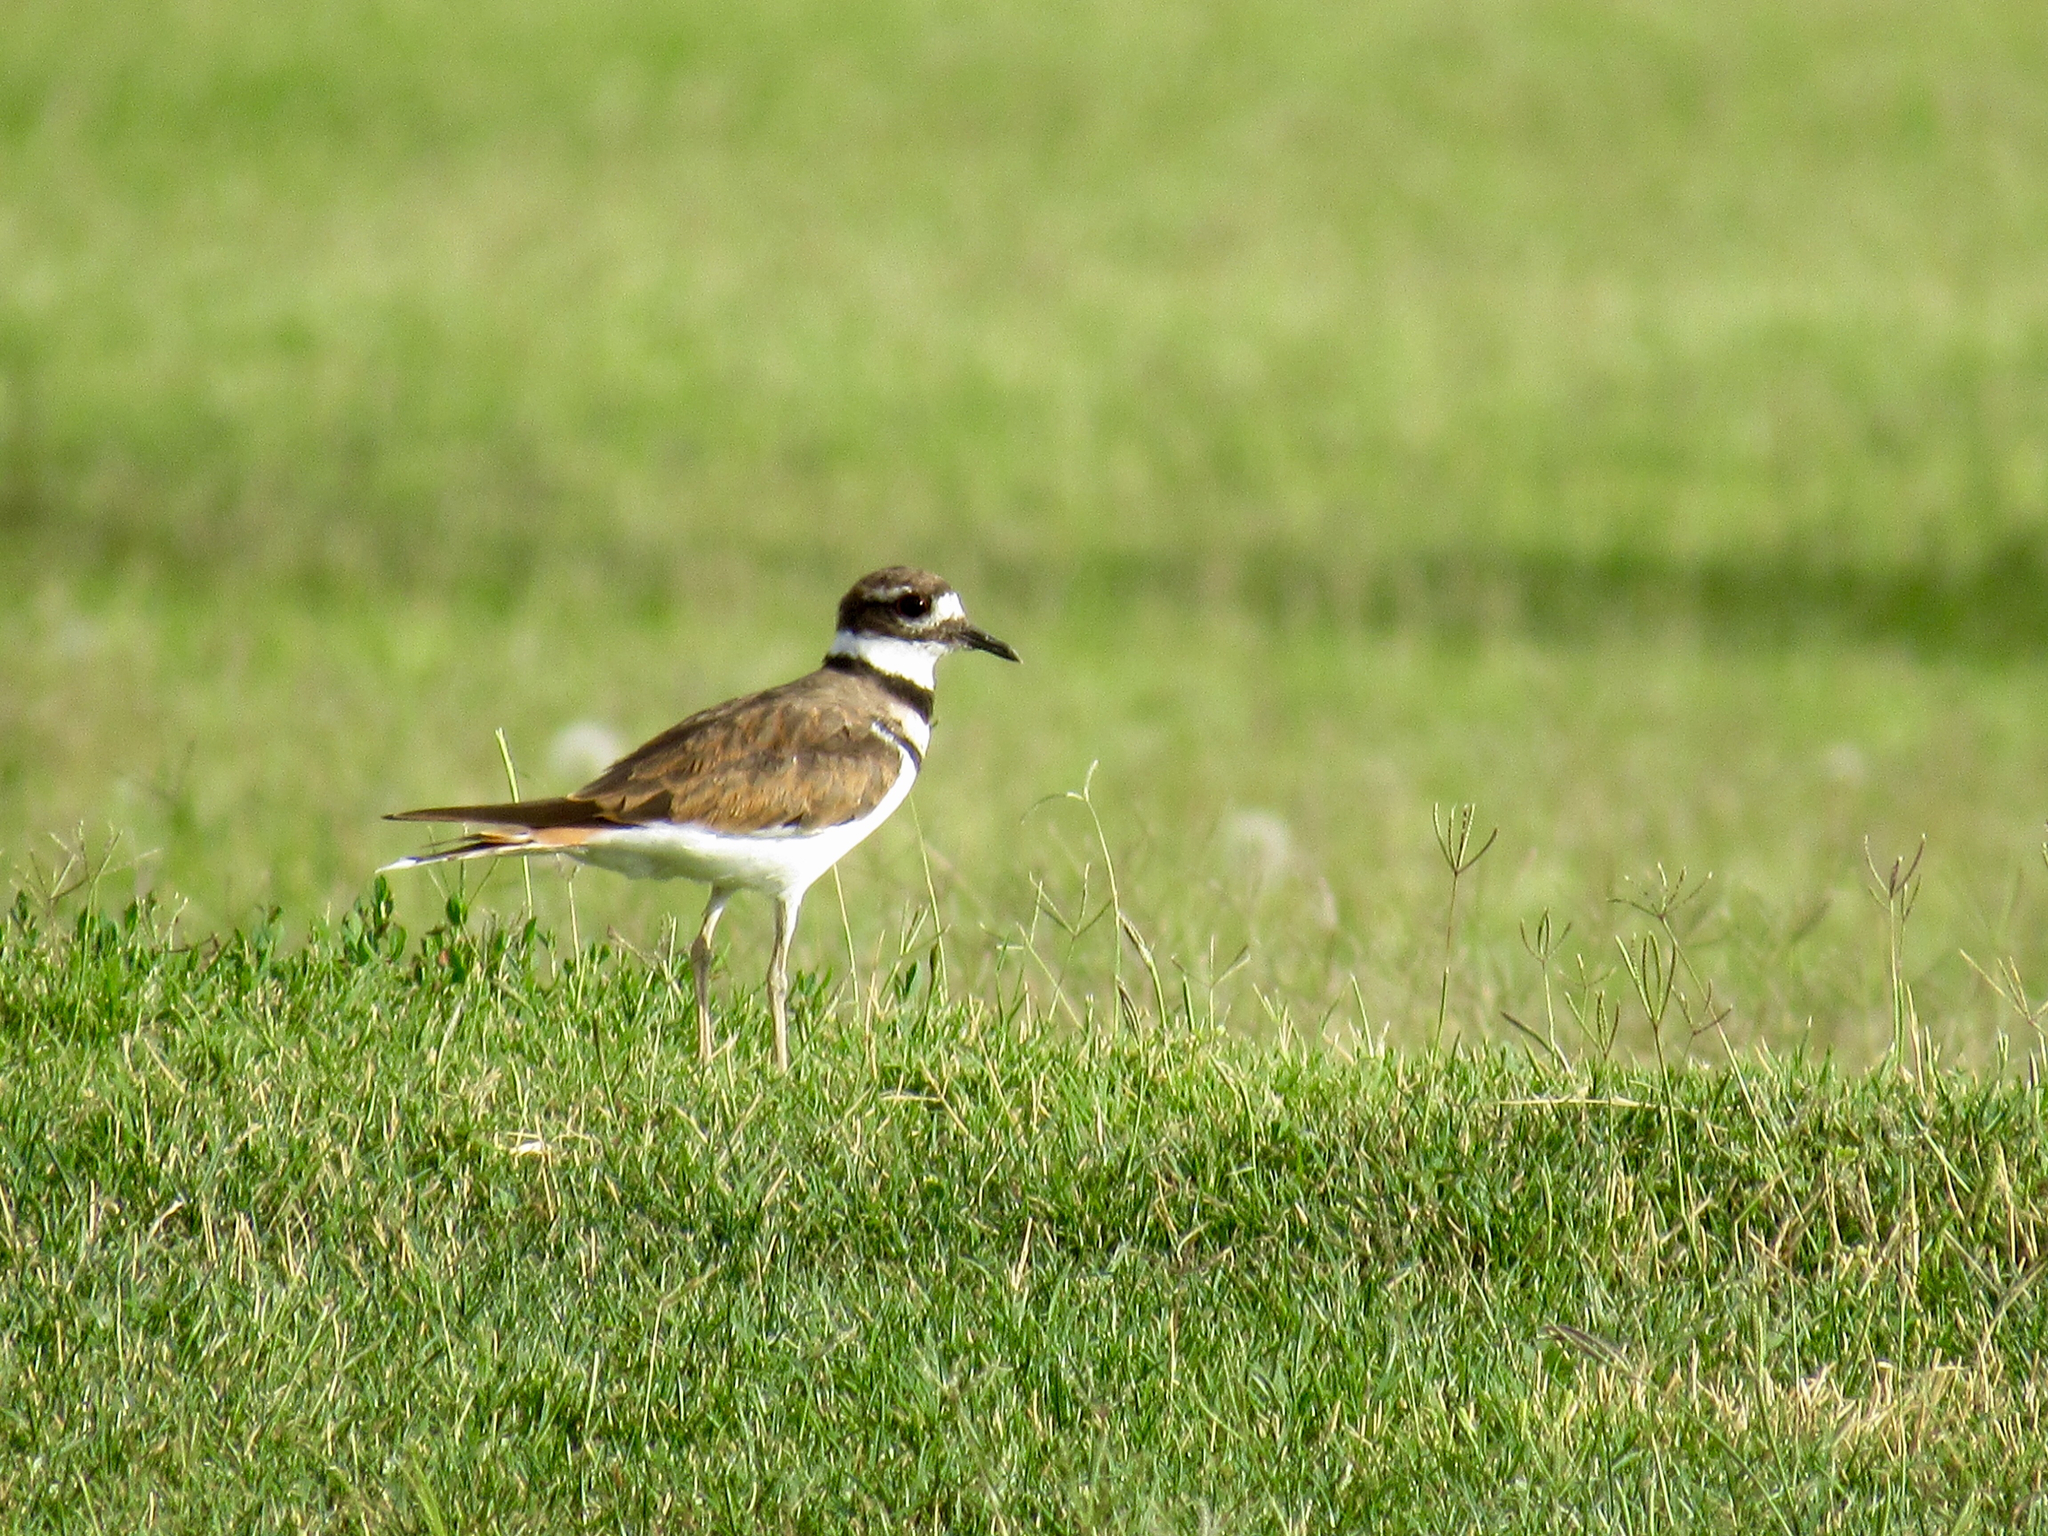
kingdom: Animalia
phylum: Chordata
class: Aves
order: Charadriiformes
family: Charadriidae
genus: Charadrius
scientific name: Charadrius vociferus
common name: Killdeer
